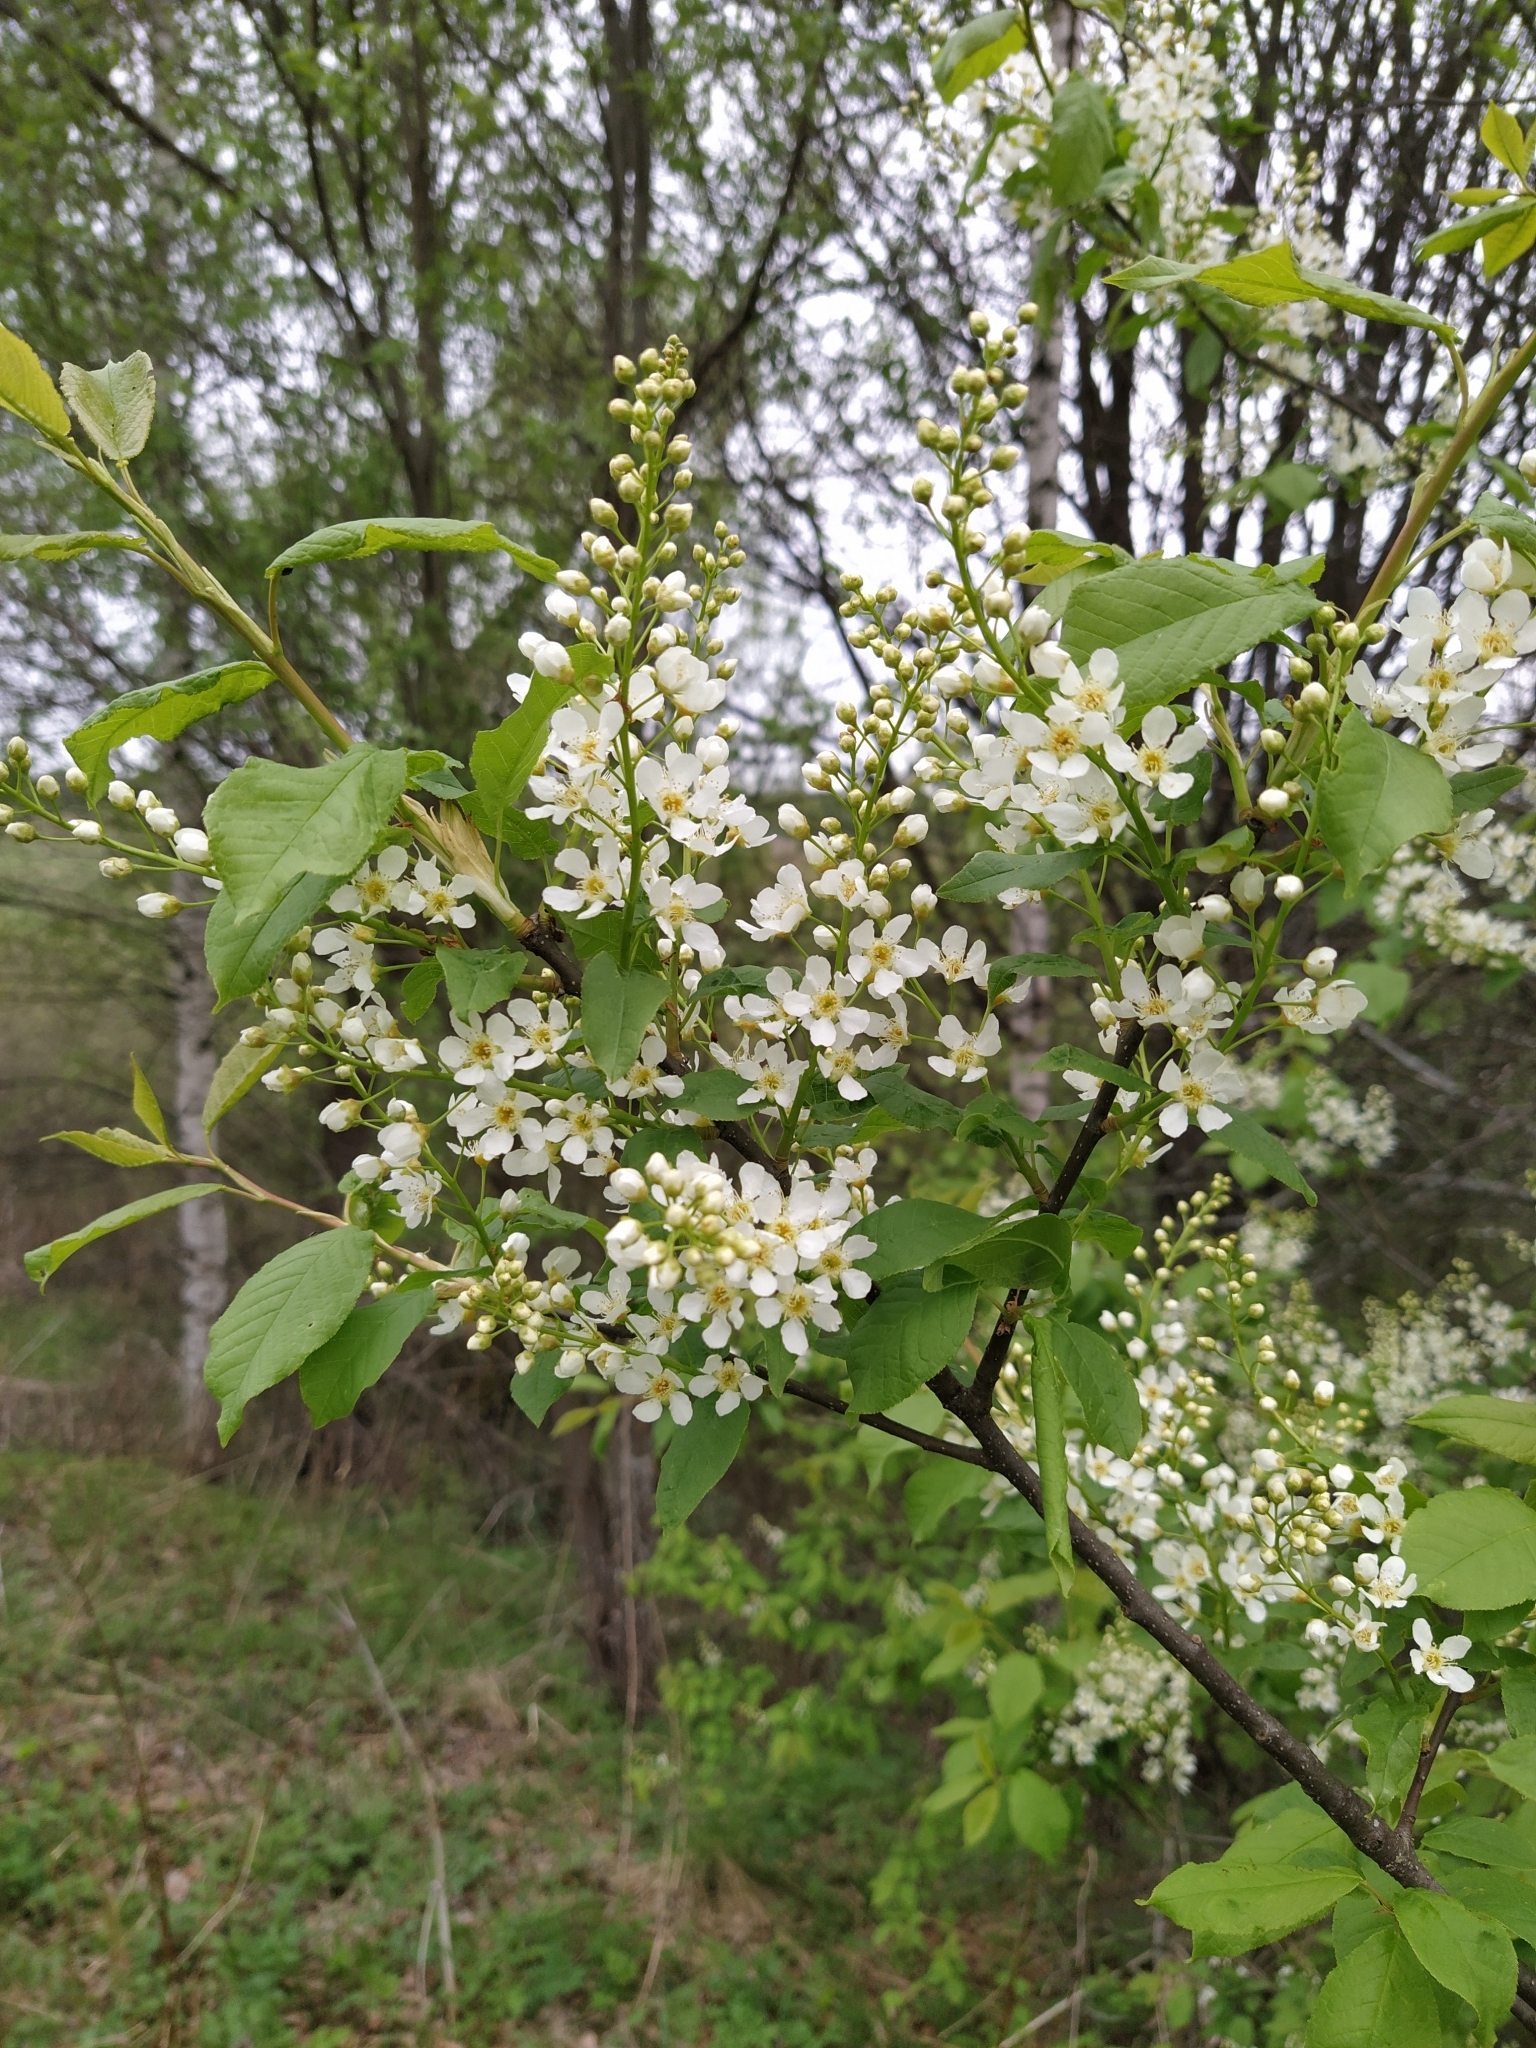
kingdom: Plantae
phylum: Tracheophyta
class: Magnoliopsida
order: Rosales
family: Rosaceae
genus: Prunus
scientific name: Prunus padus
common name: Bird cherry
